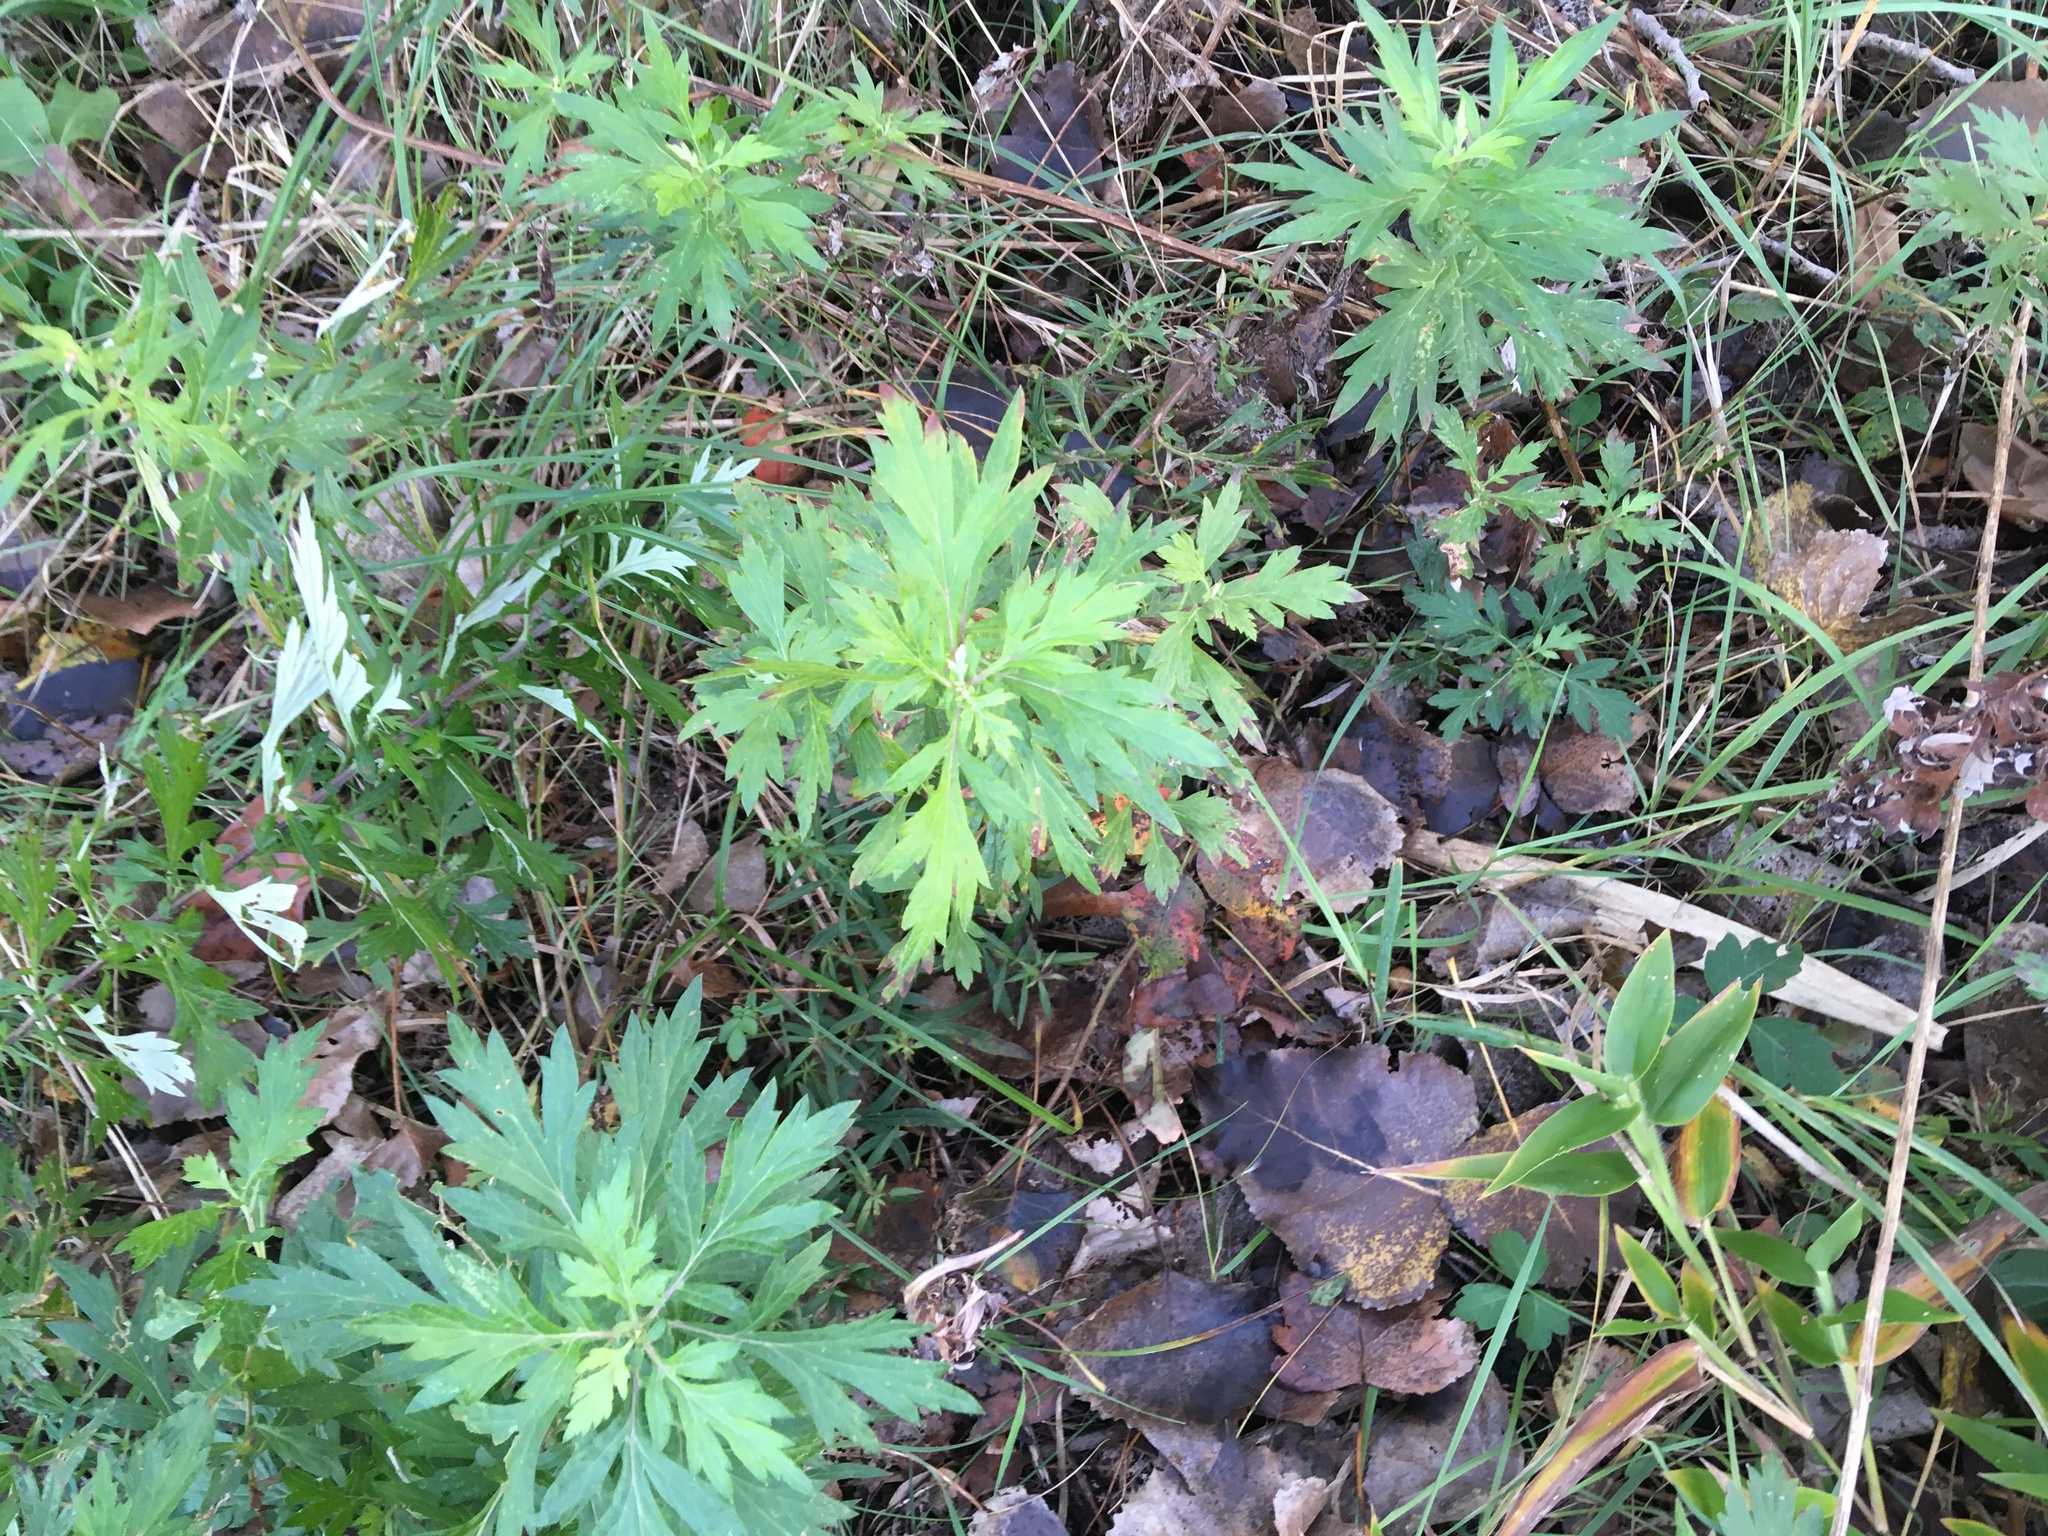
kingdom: Plantae
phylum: Tracheophyta
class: Magnoliopsida
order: Asterales
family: Asteraceae
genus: Artemisia
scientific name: Artemisia vulgaris
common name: Mugwort
